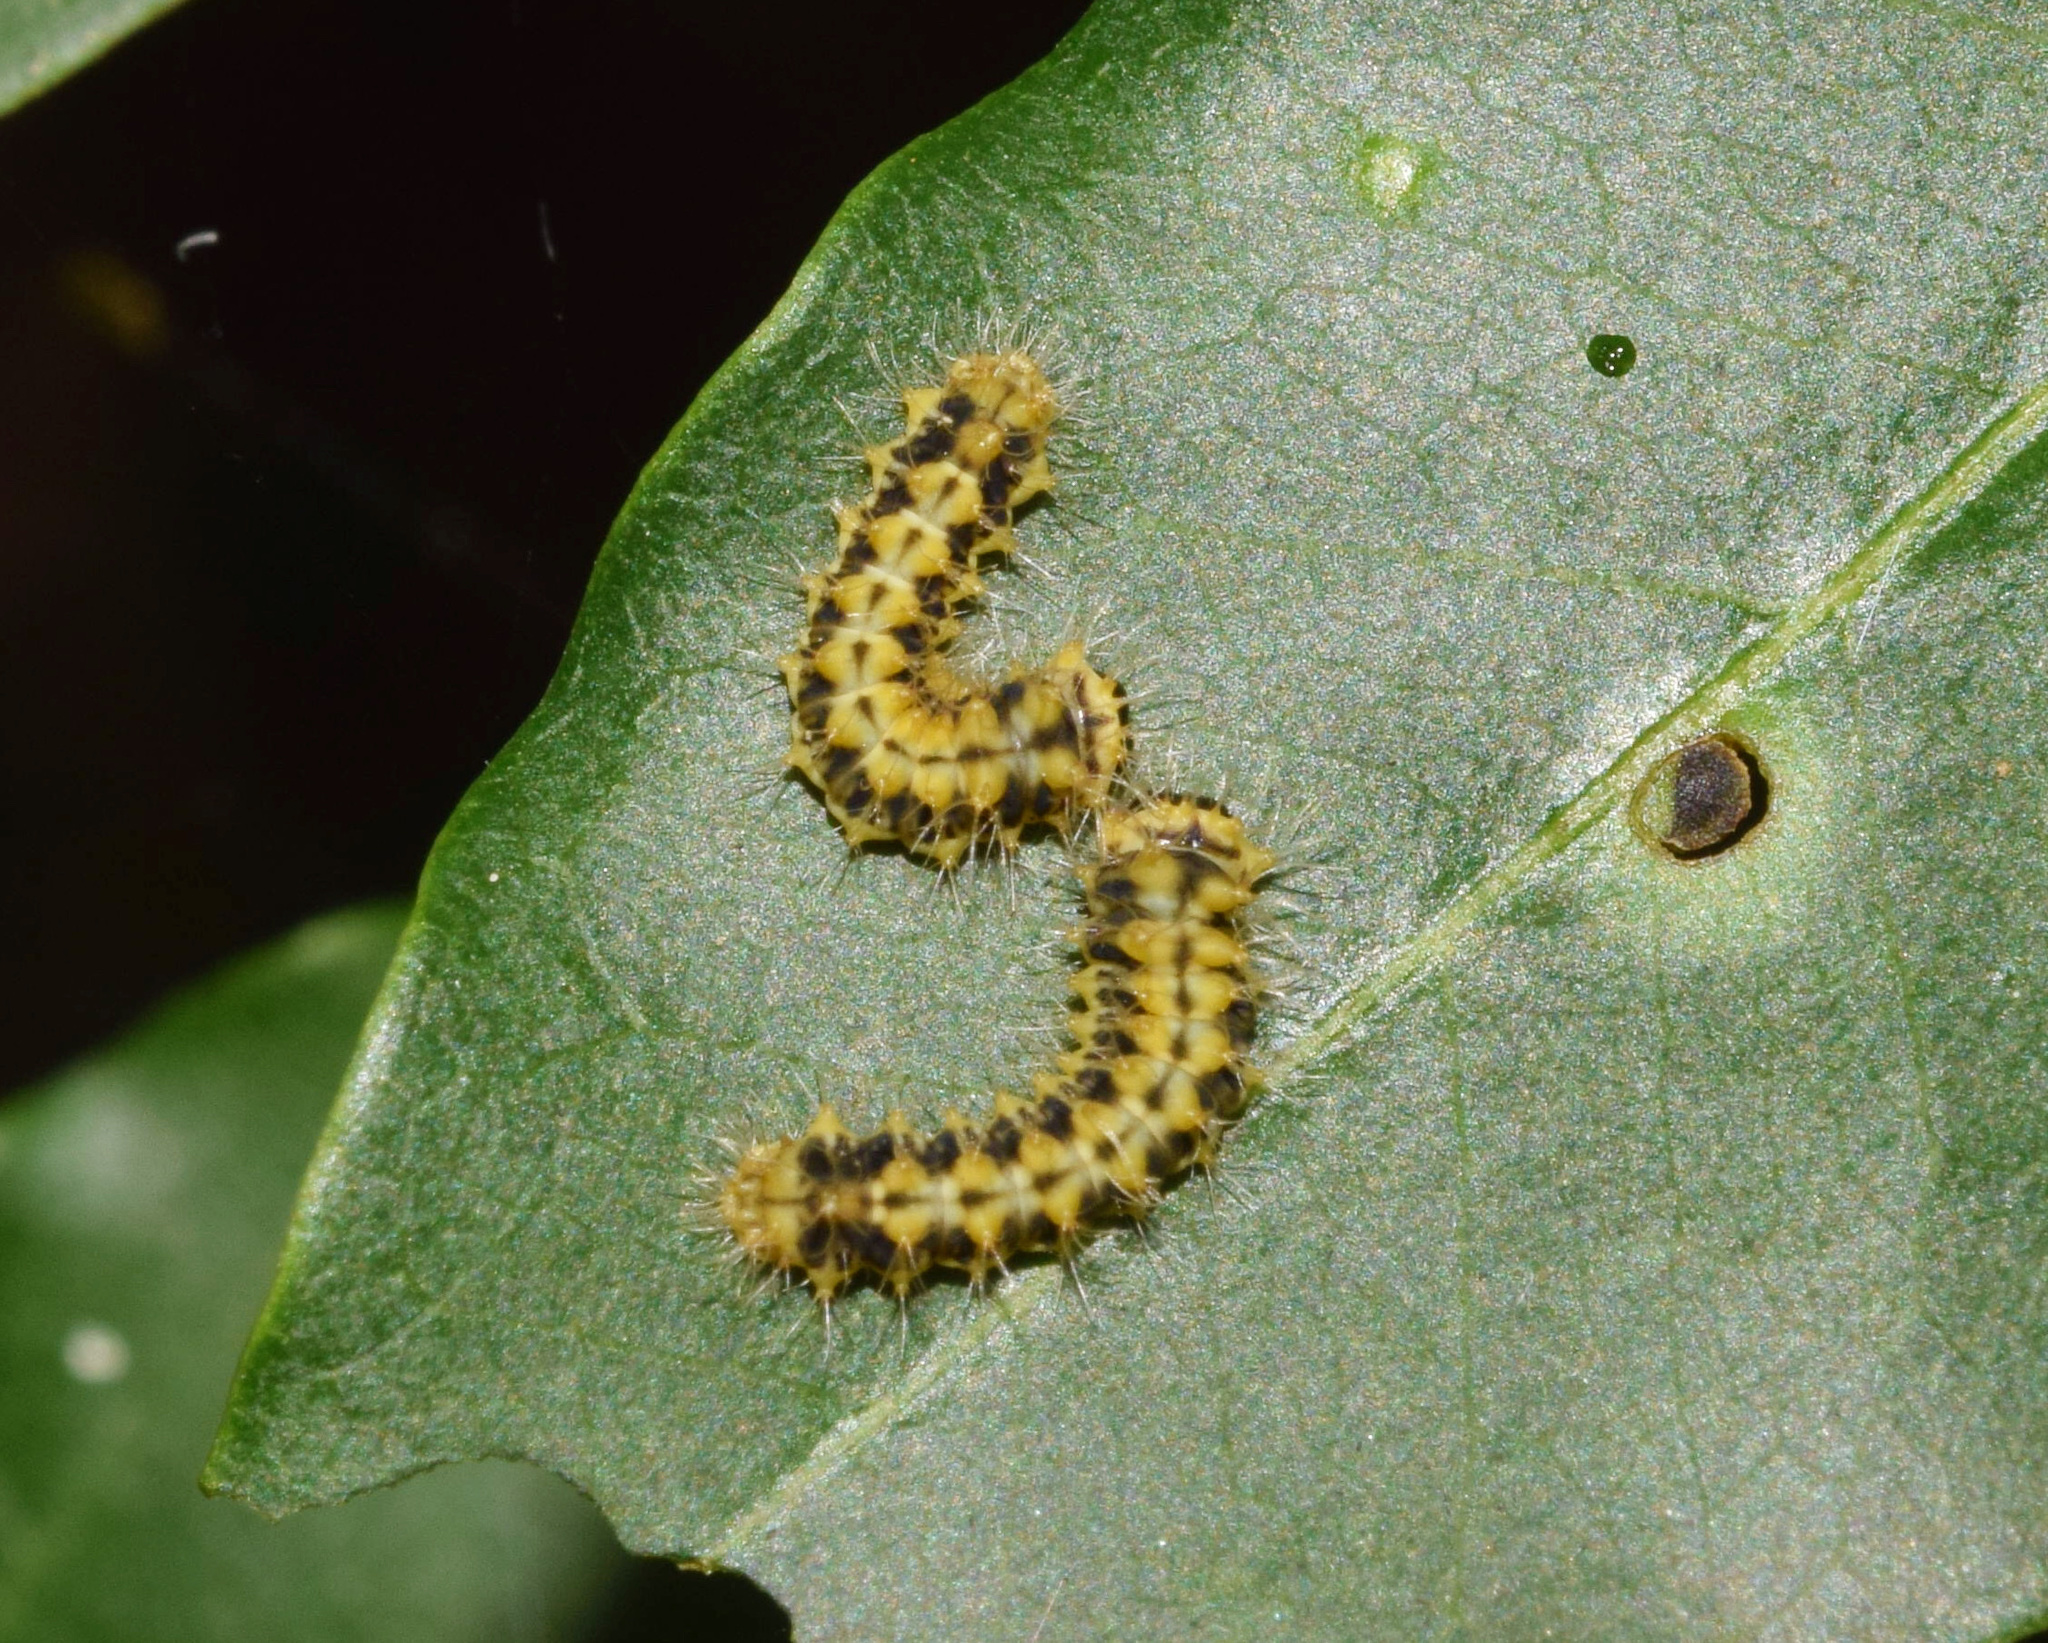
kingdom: Animalia
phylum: Arthropoda
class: Insecta
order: Lepidoptera
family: Saturniidae
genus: Pseudobunaea
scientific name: Pseudobunaea tyrrhena
